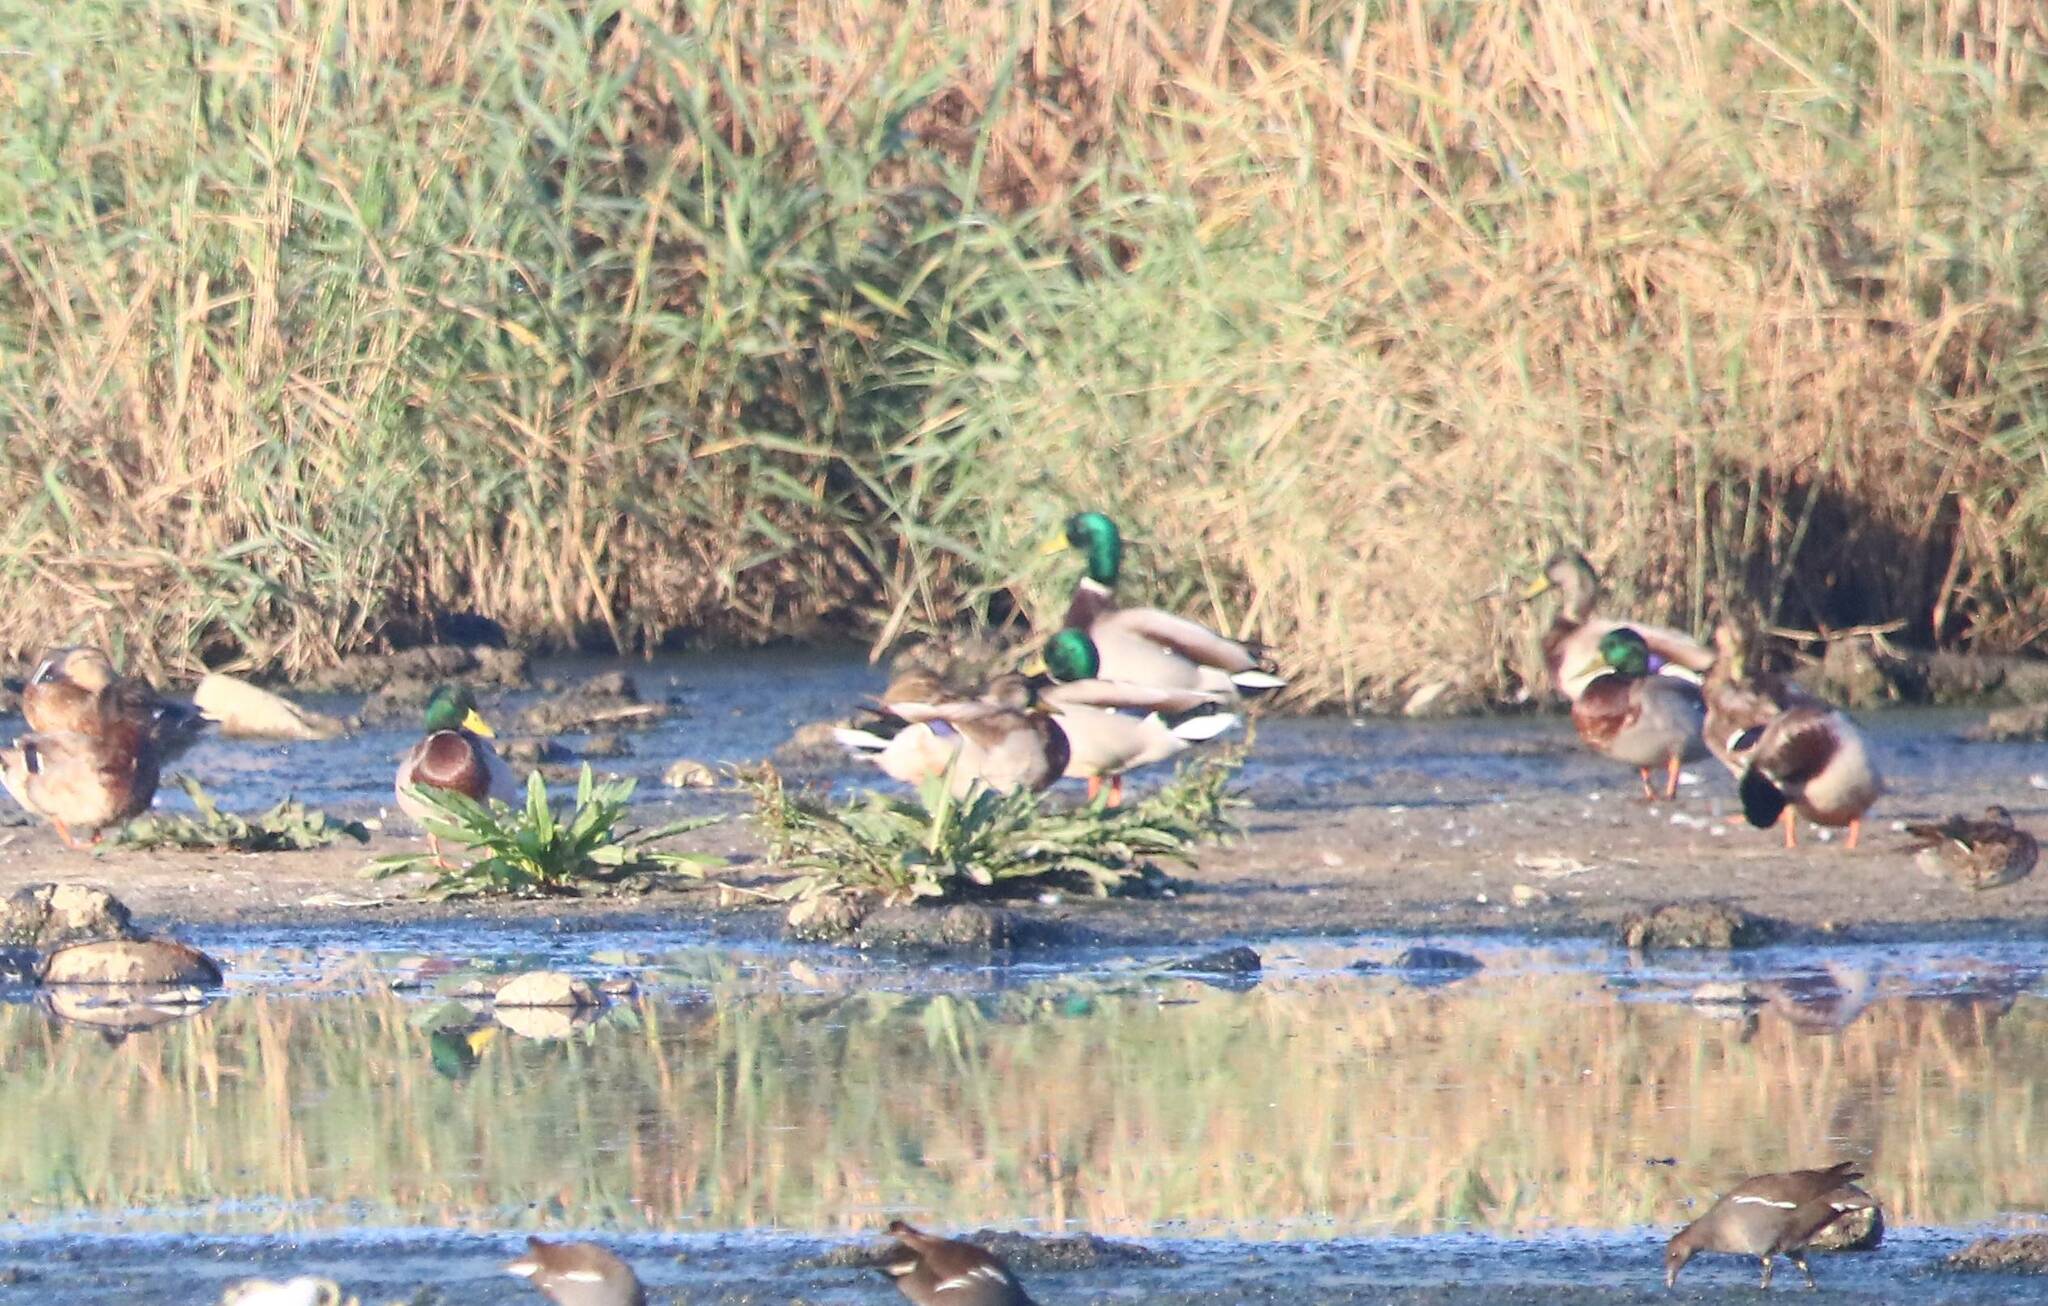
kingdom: Animalia
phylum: Chordata
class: Aves
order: Anseriformes
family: Anatidae
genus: Anas
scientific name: Anas platyrhynchos
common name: Mallard
